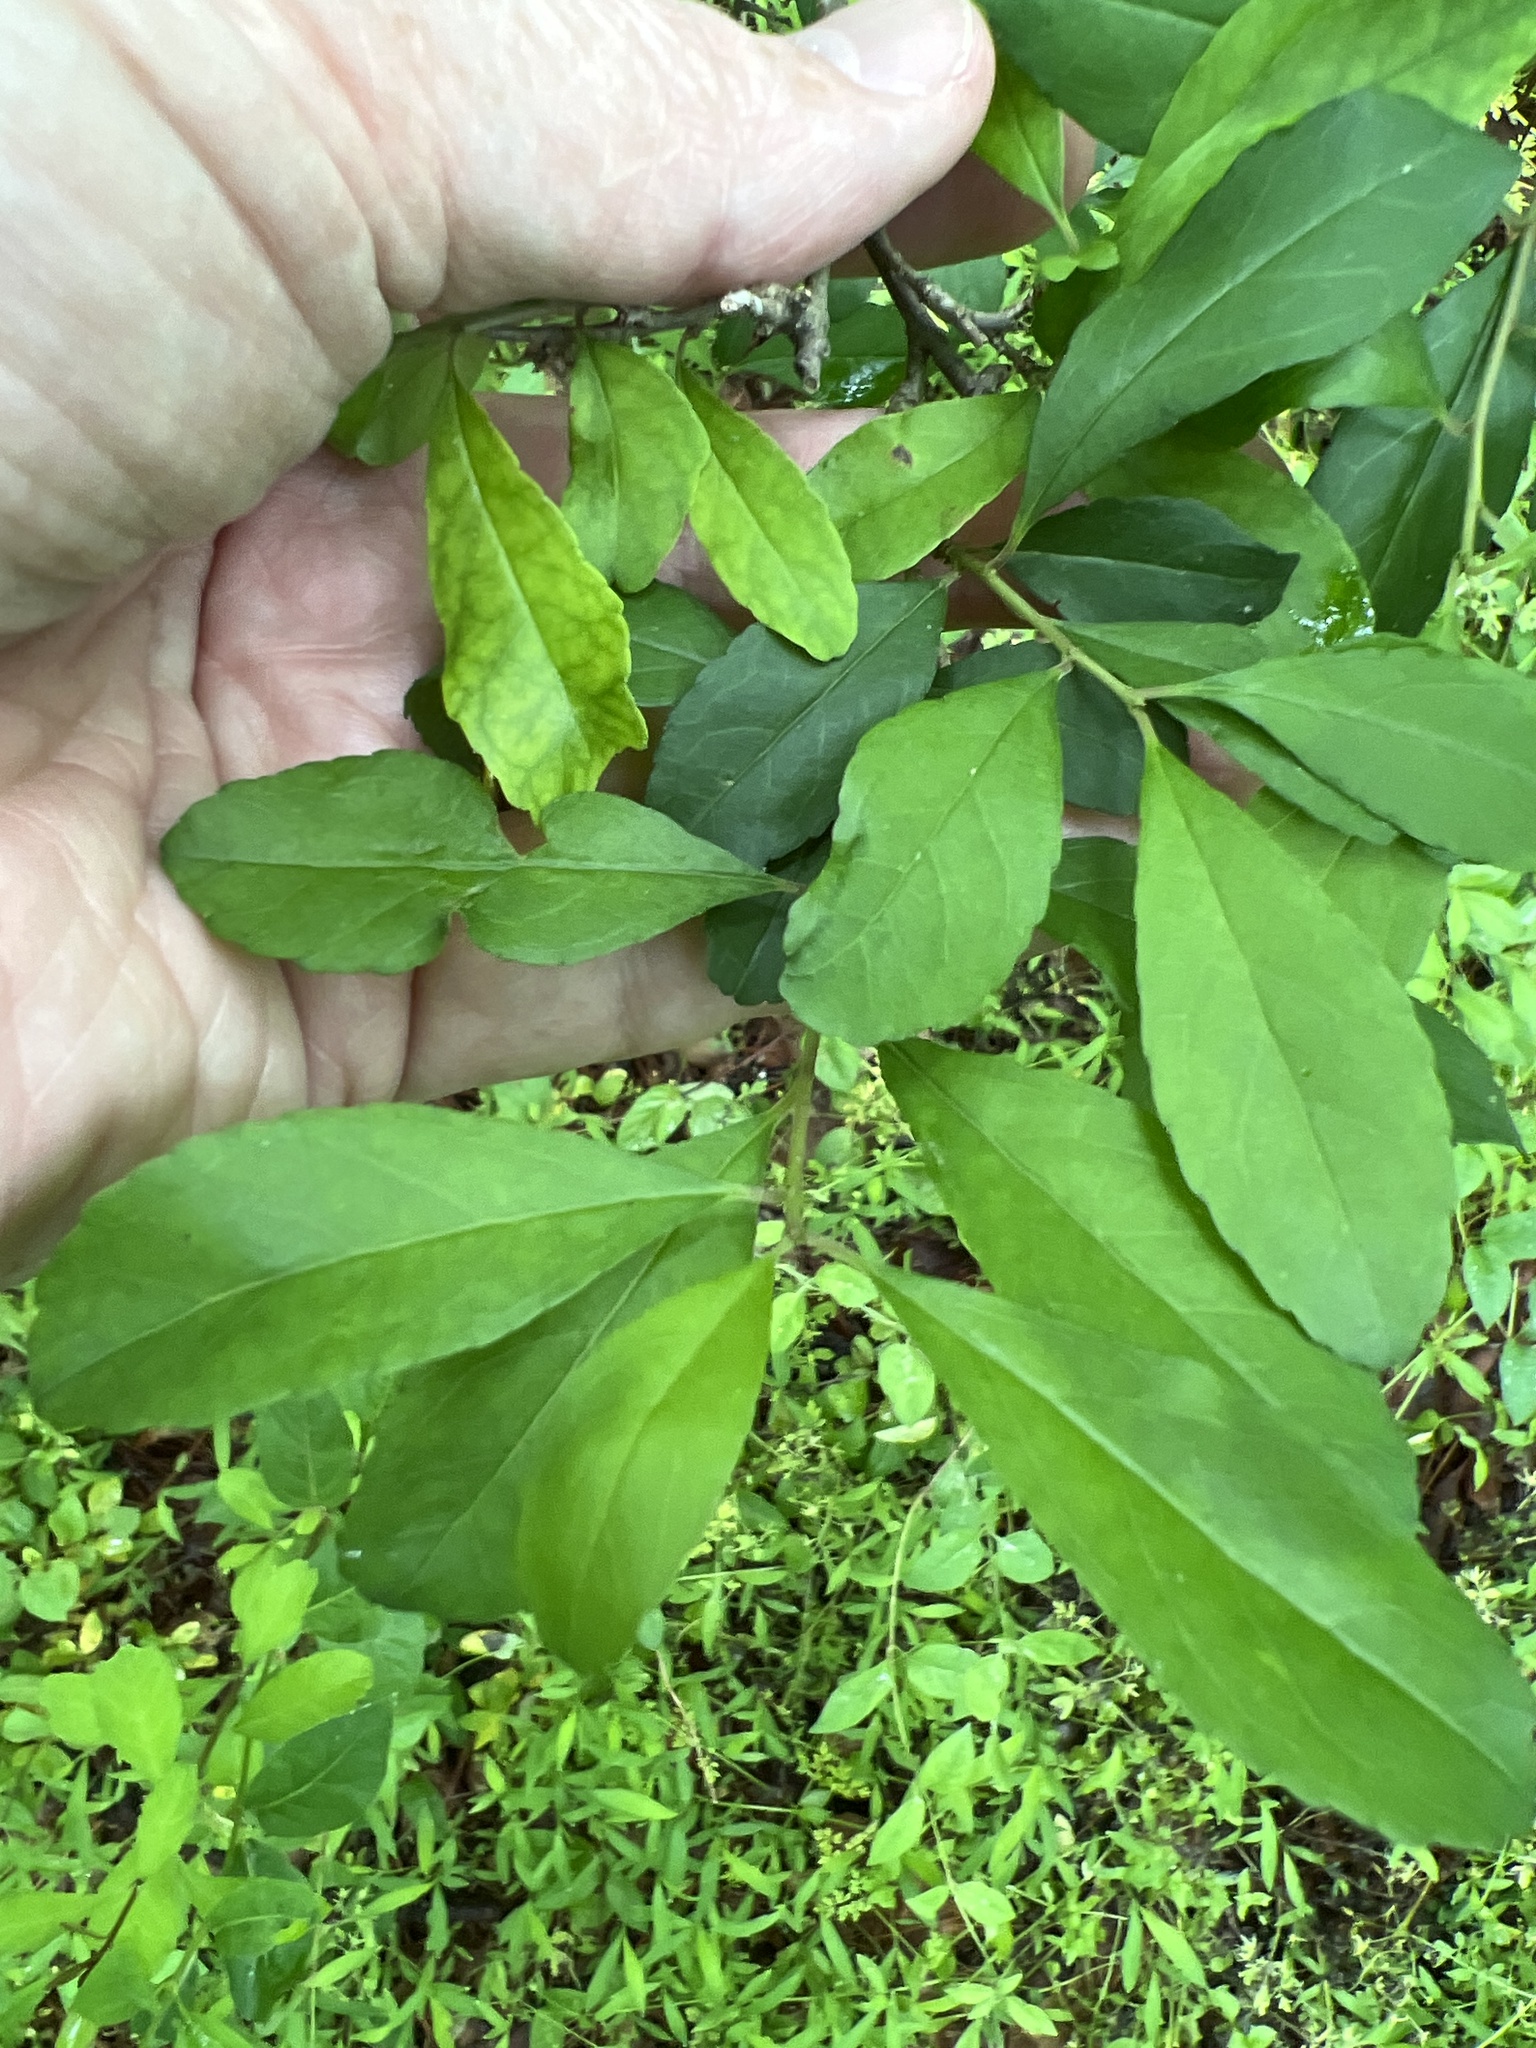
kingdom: Plantae
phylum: Tracheophyta
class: Magnoliopsida
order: Aquifoliales
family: Aquifoliaceae
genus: Ilex
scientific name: Ilex decidua
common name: Possum-haw
